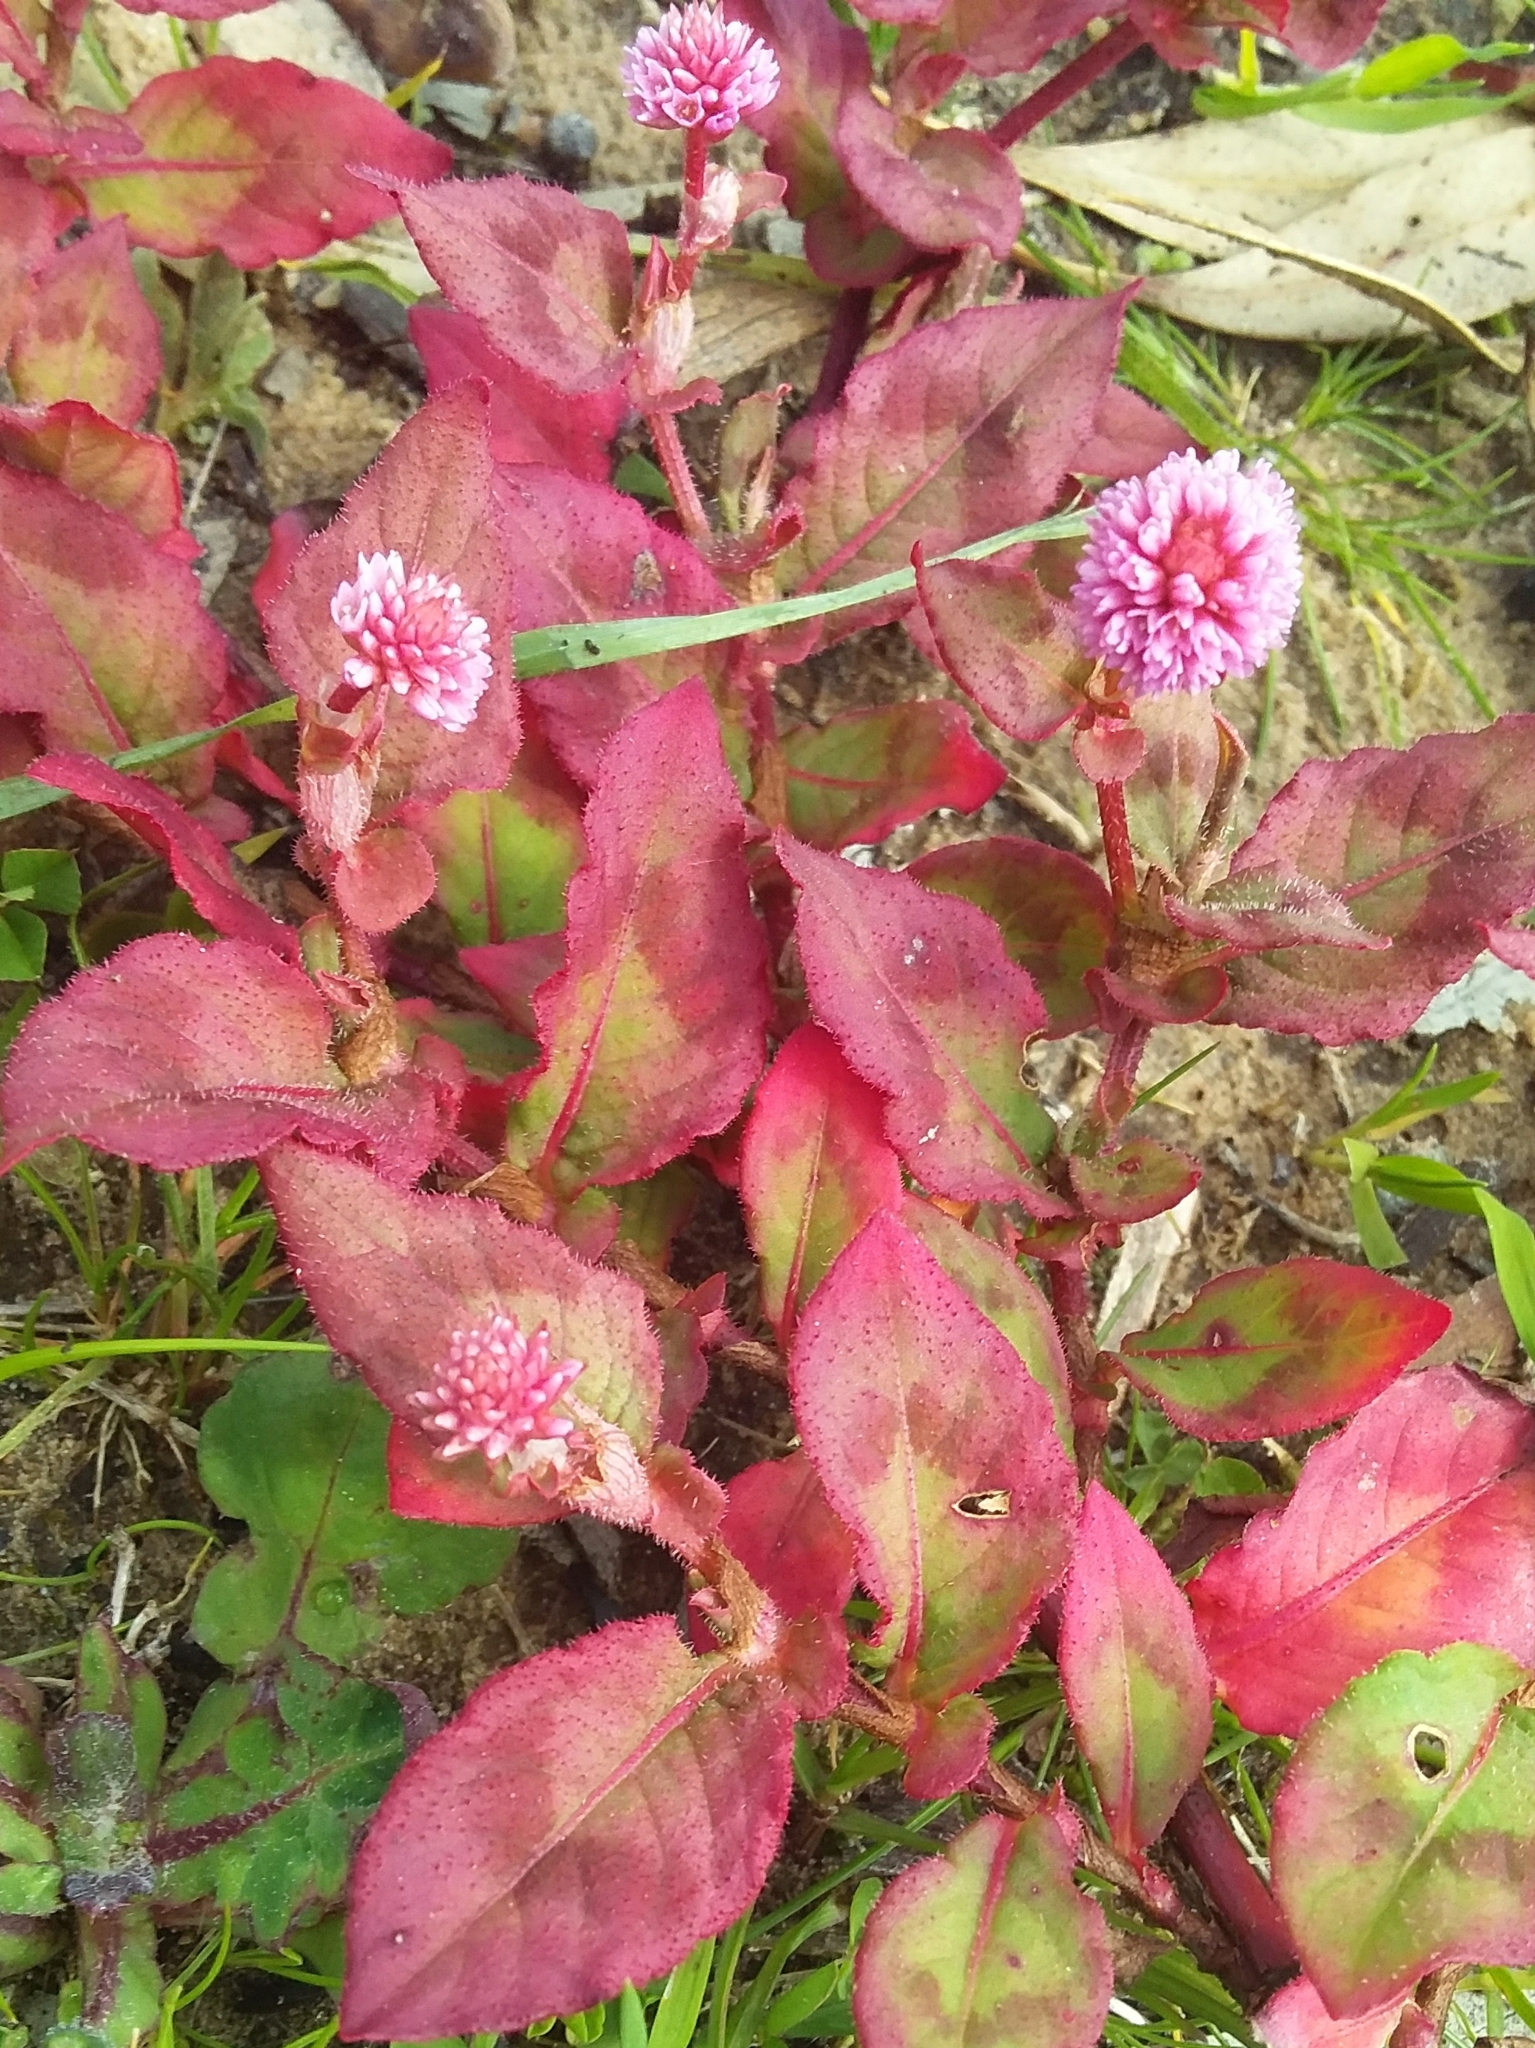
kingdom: Plantae
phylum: Tracheophyta
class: Magnoliopsida
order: Caryophyllales
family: Polygonaceae
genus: Persicaria
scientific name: Persicaria capitata
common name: Pinkhead smartweed
